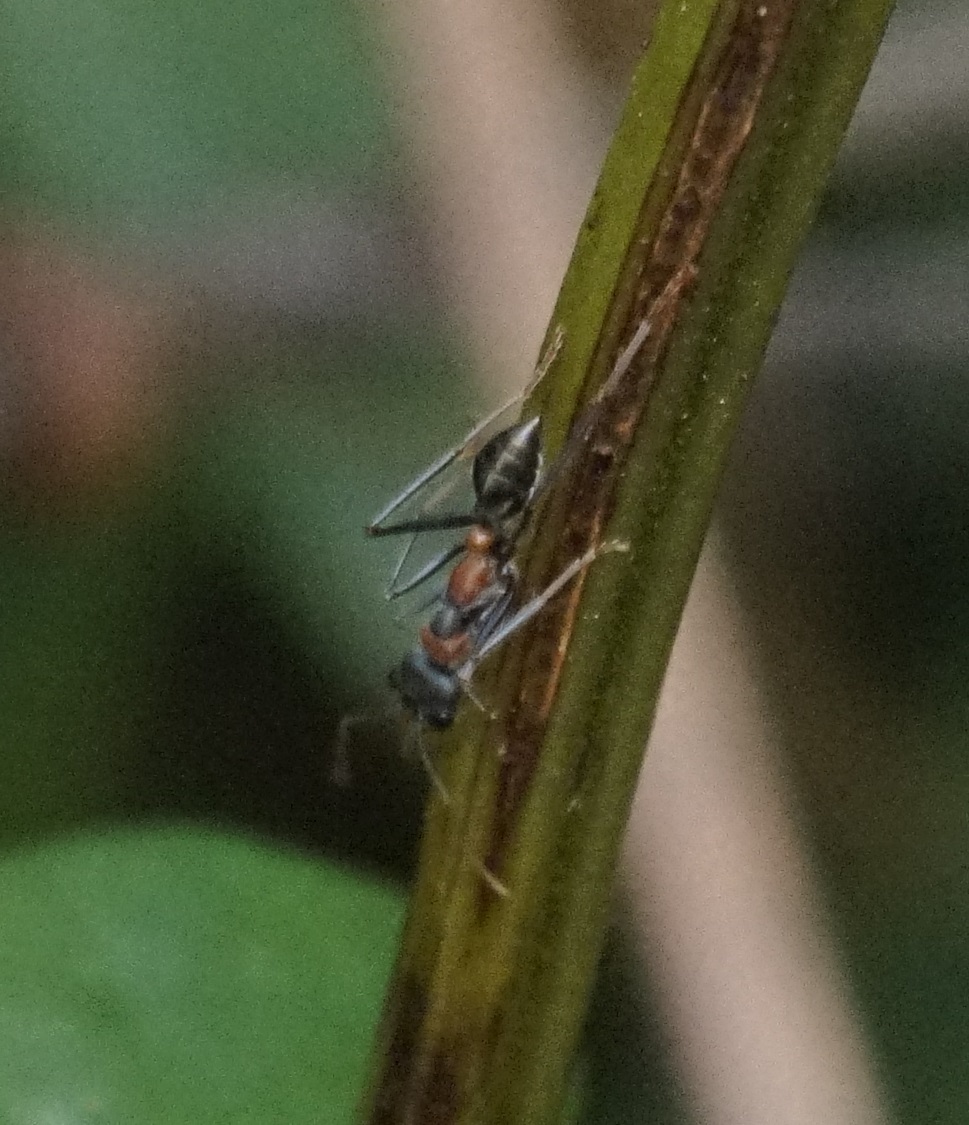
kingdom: Animalia
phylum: Arthropoda
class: Insecta
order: Hymenoptera
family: Formicidae
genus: Myrmecia
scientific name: Myrmecia nigrocincta
